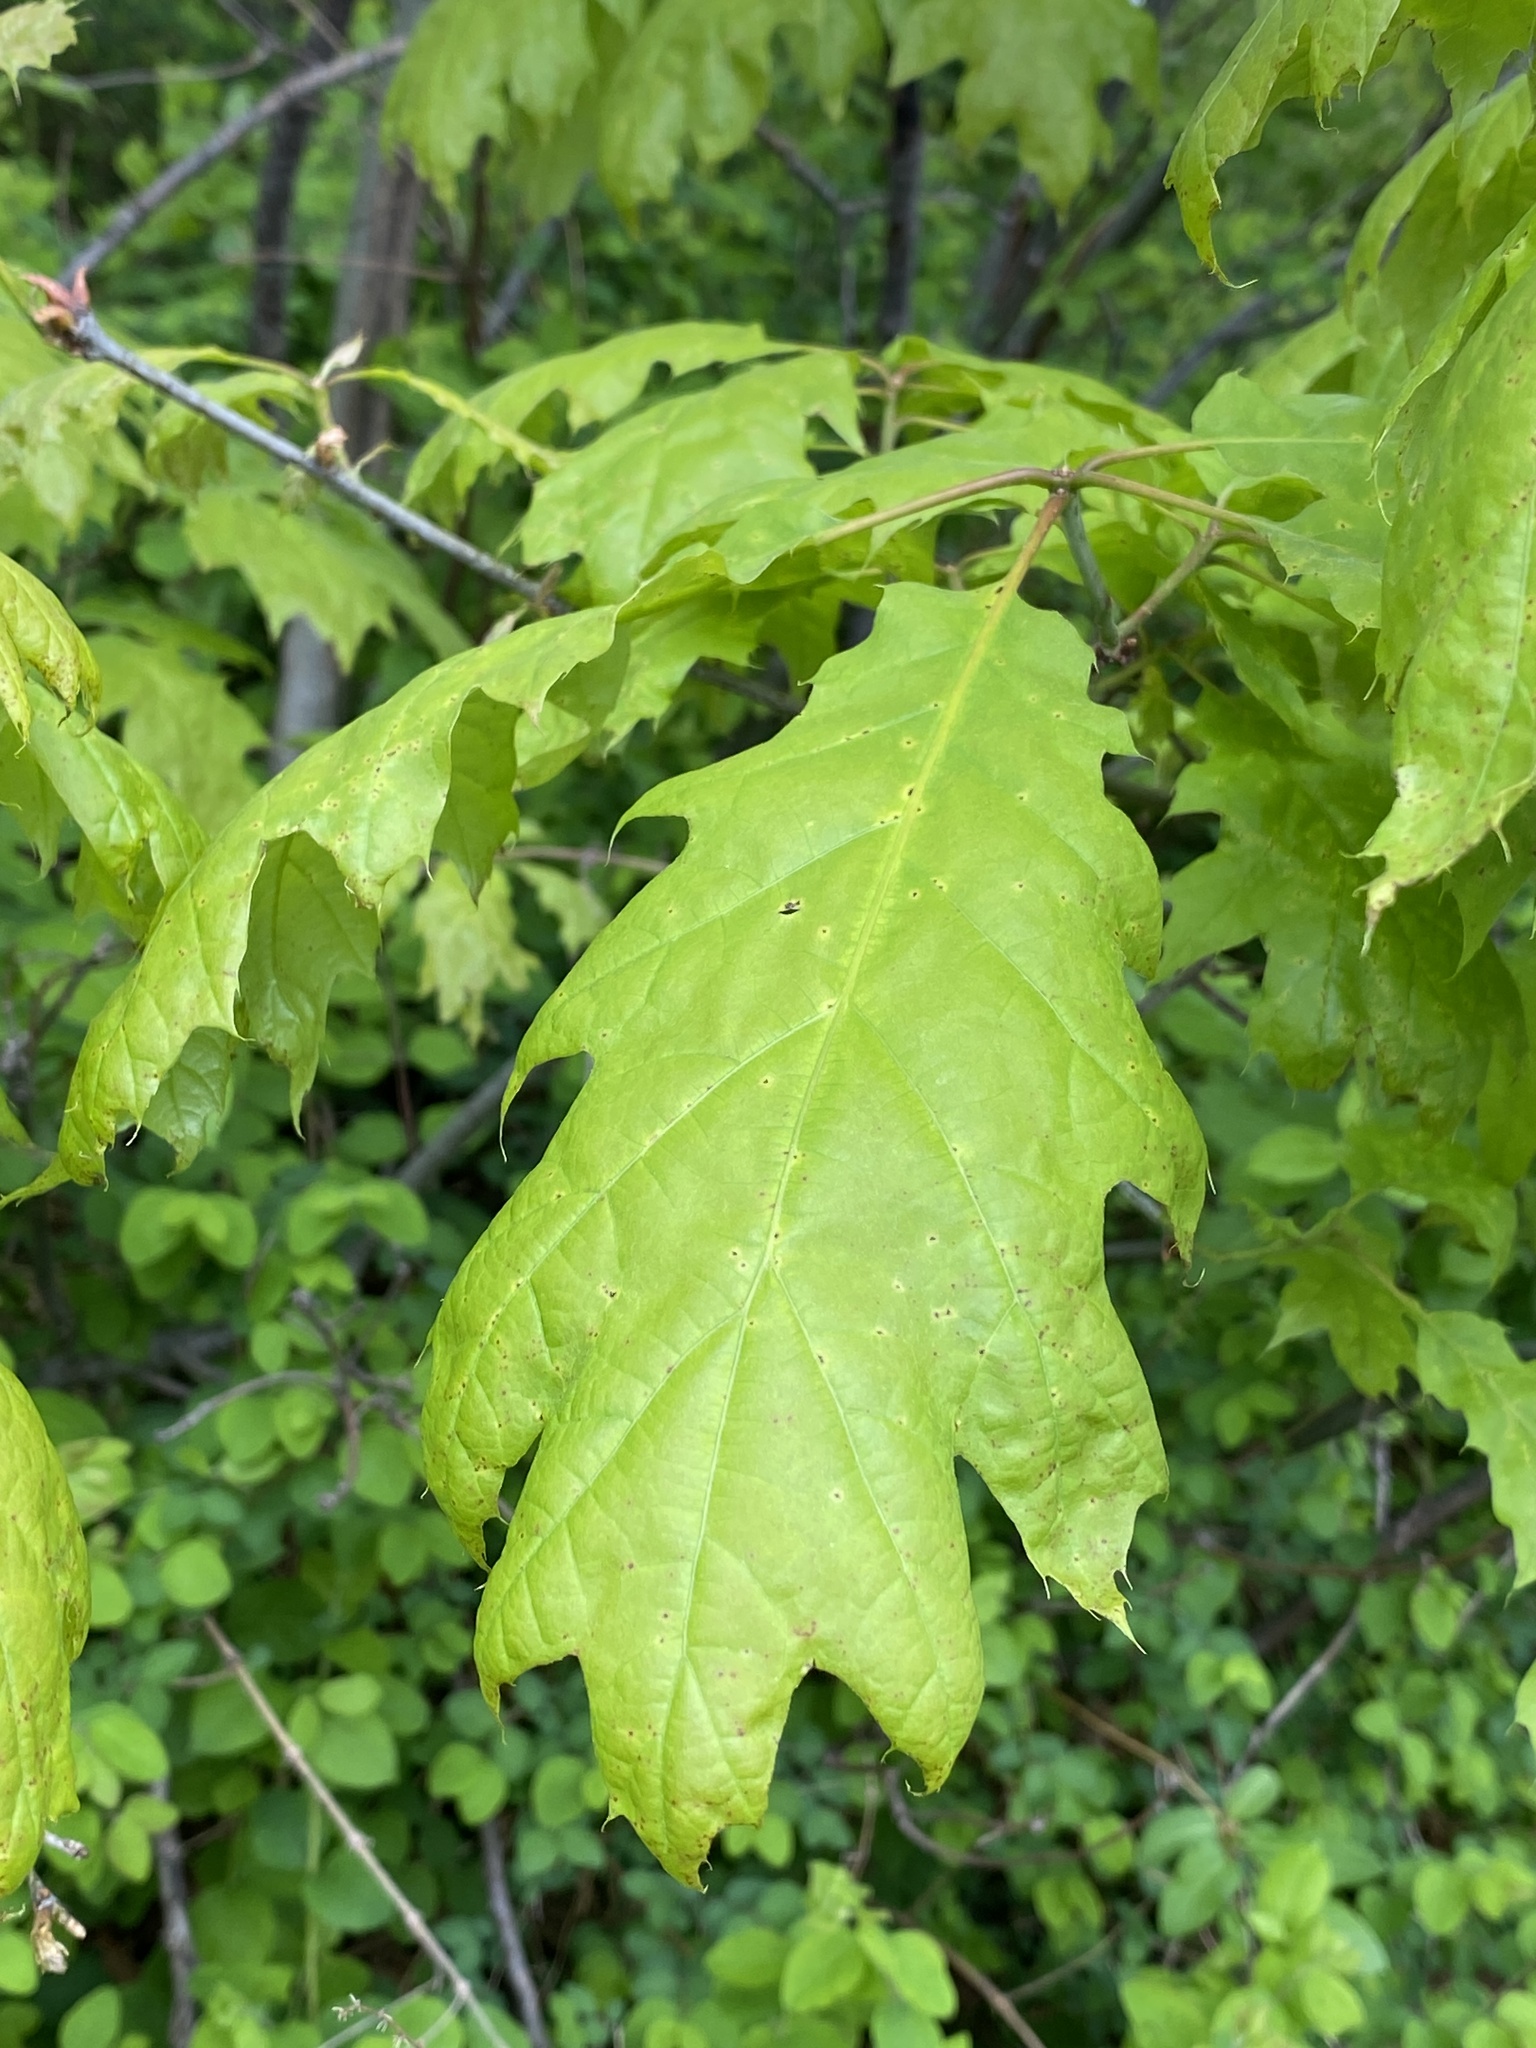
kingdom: Plantae
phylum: Tracheophyta
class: Magnoliopsida
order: Fagales
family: Fagaceae
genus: Quercus
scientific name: Quercus rubra
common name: Red oak
